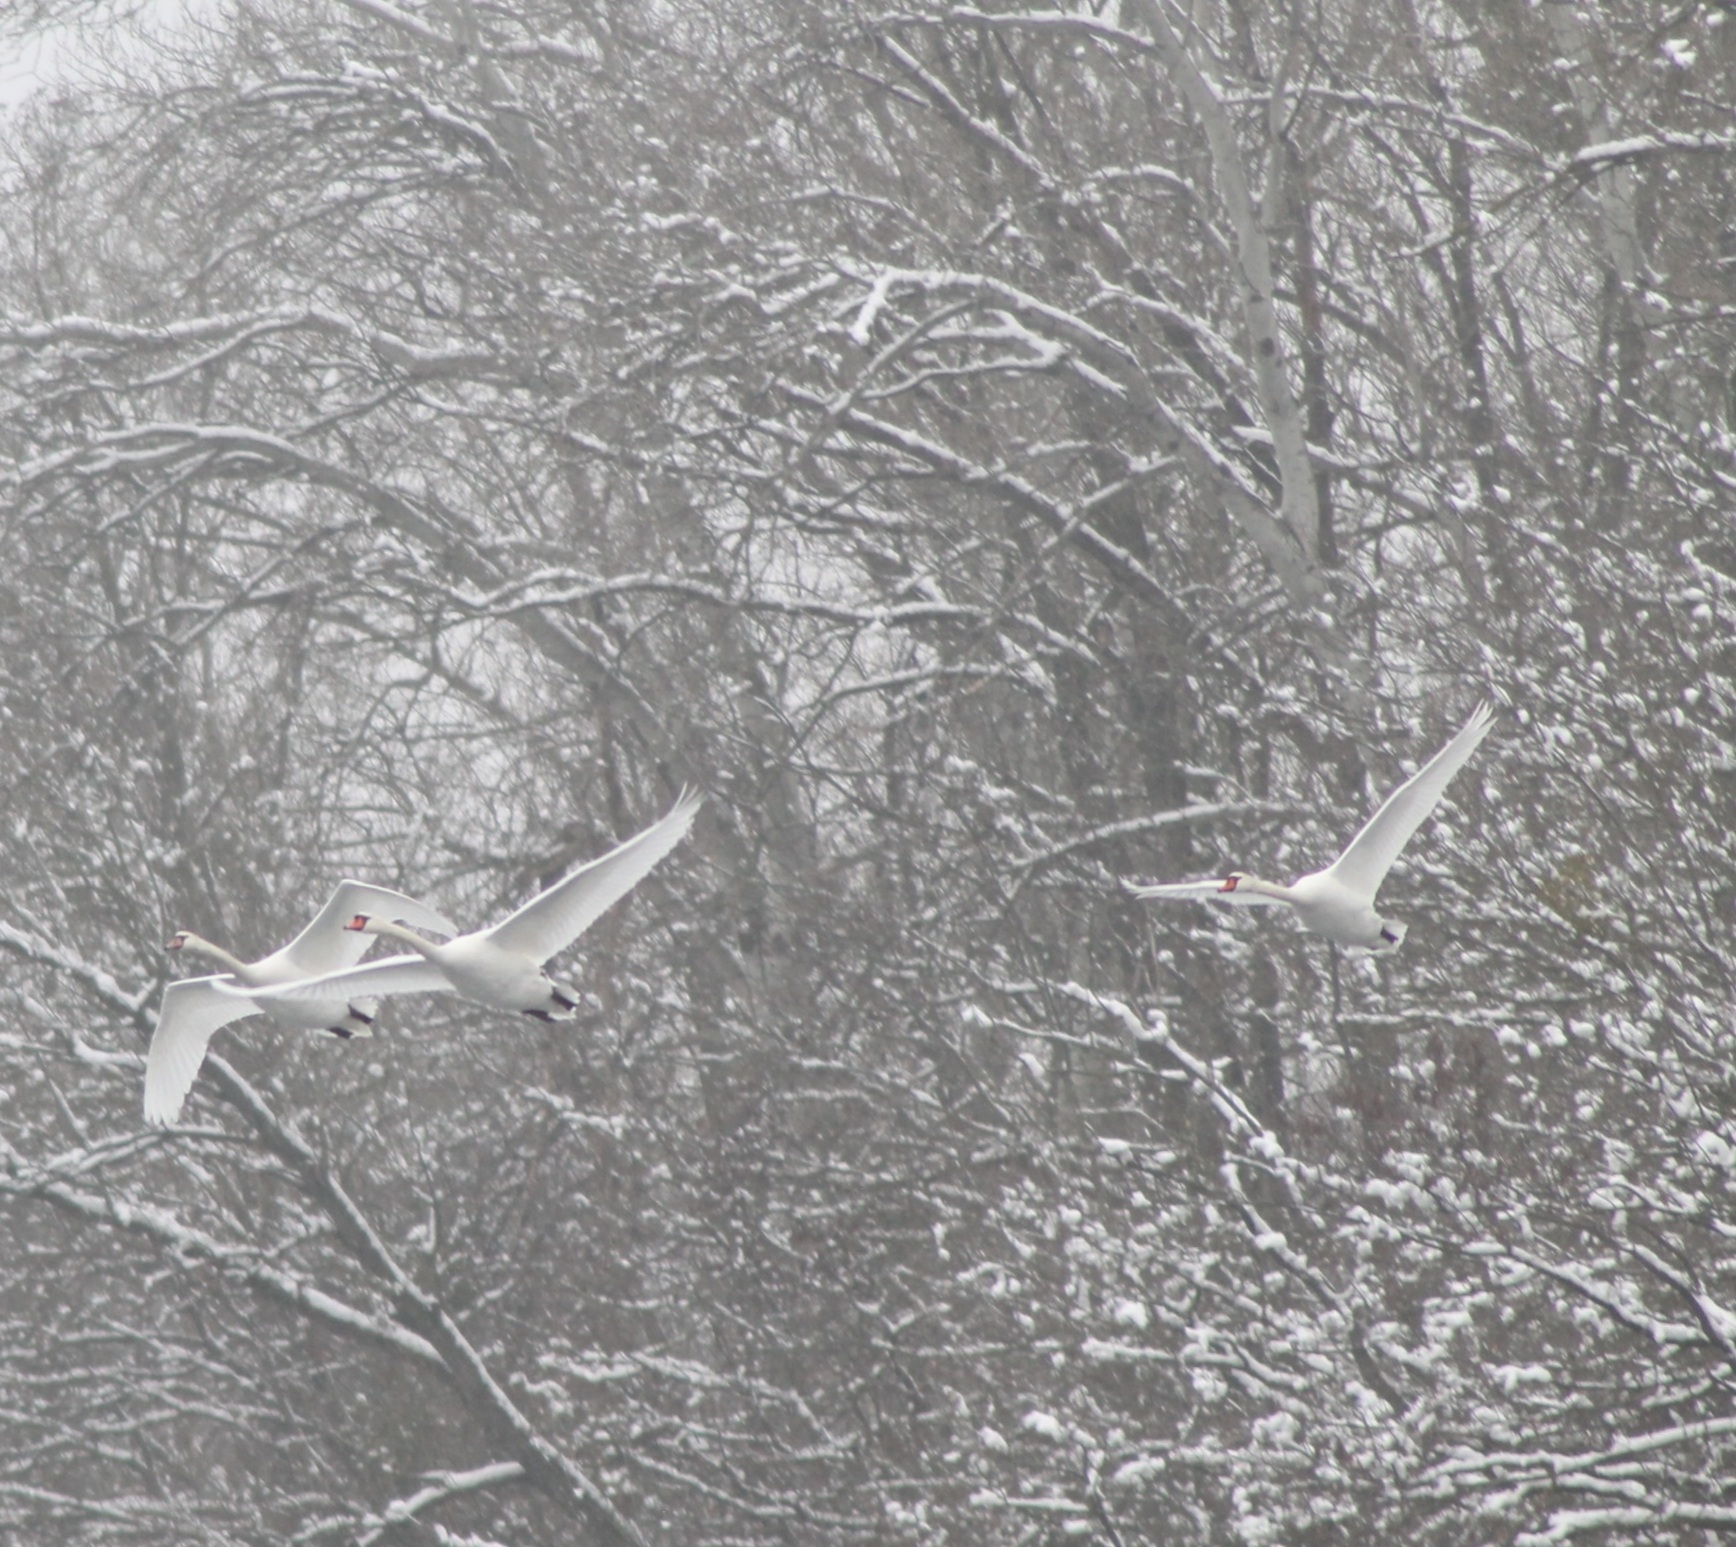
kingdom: Animalia
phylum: Chordata
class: Aves
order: Anseriformes
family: Anatidae
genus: Cygnus
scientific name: Cygnus olor
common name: Mute swan
